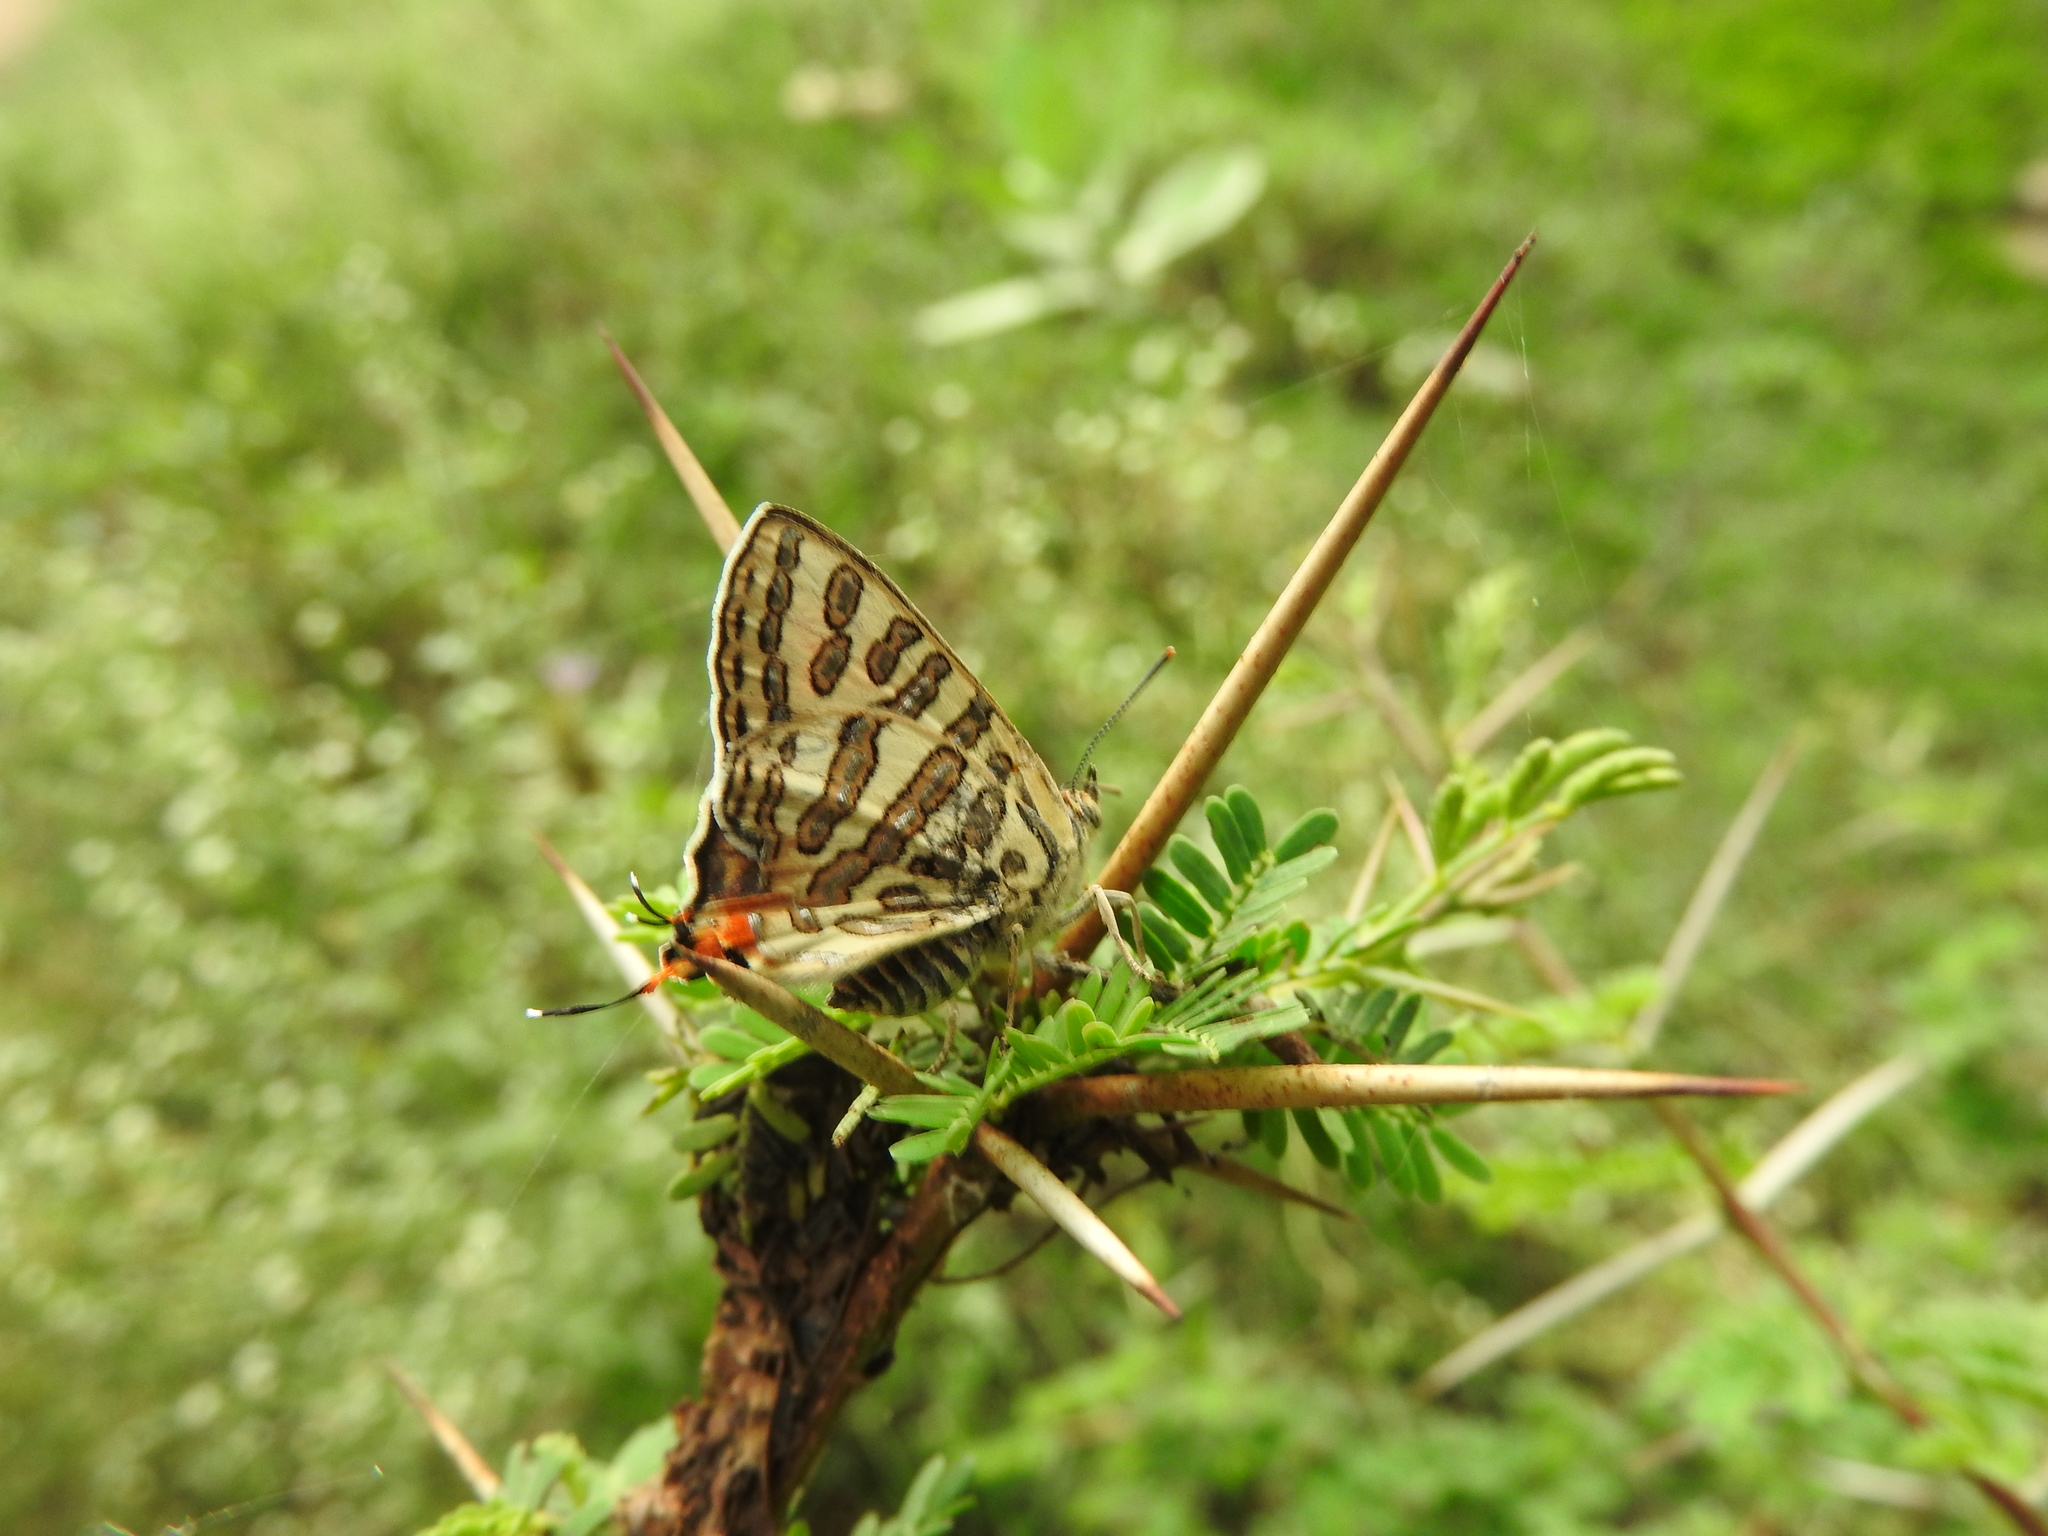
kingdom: Animalia
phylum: Arthropoda
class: Insecta
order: Lepidoptera
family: Lycaenidae
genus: Cigaritis
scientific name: Cigaritis
